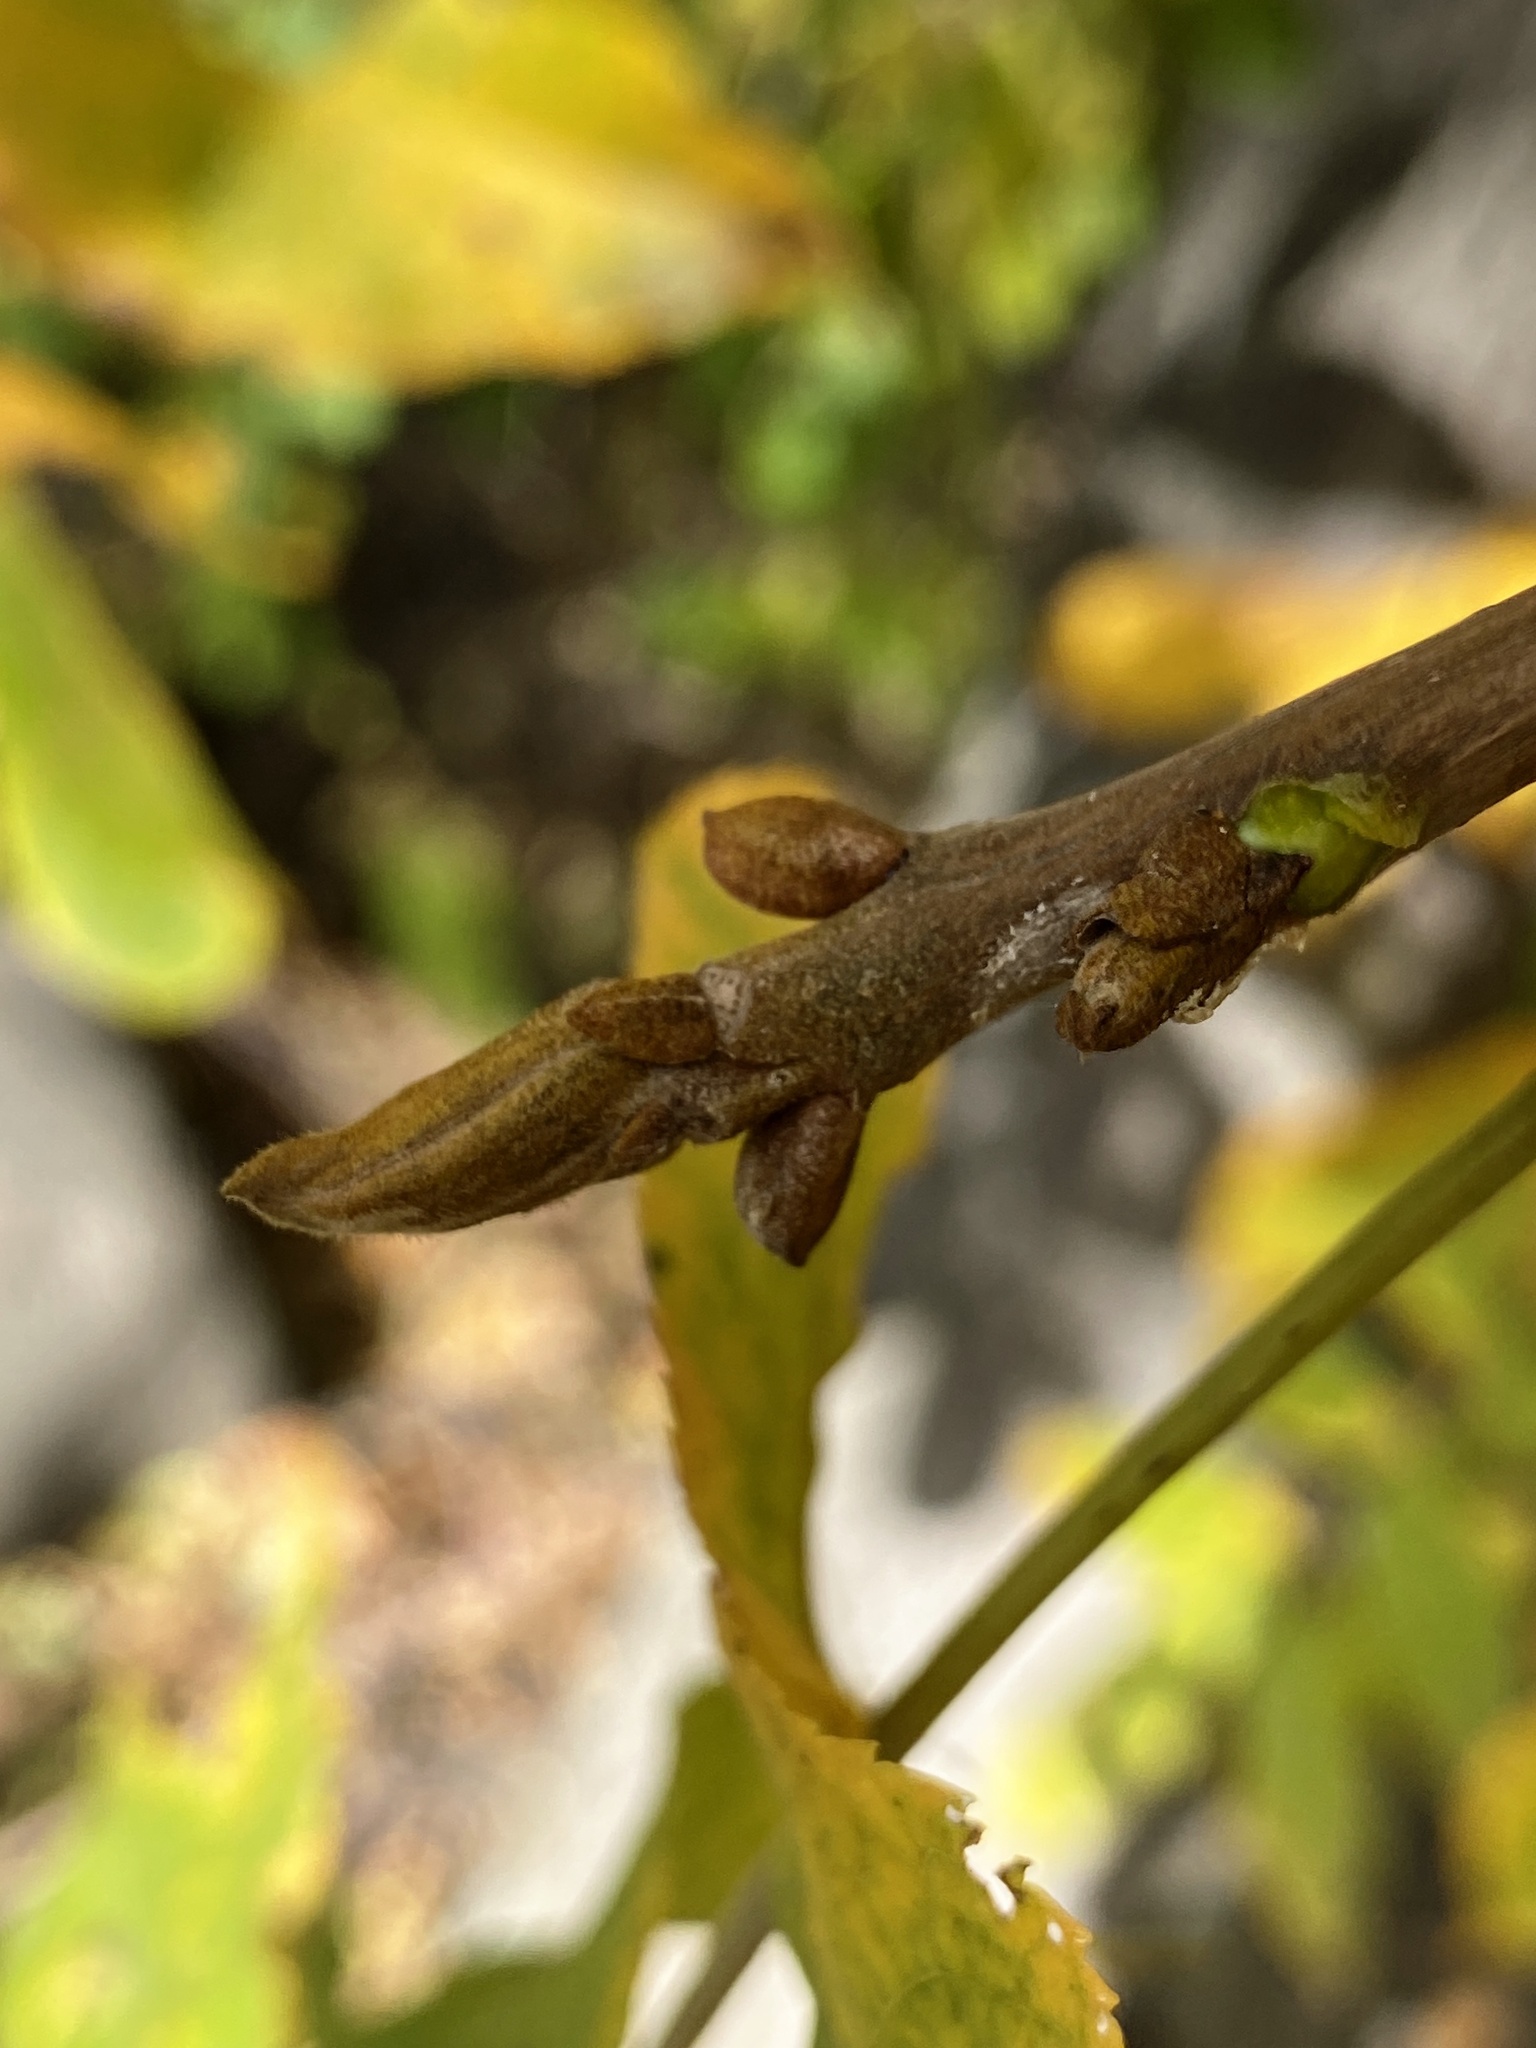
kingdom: Plantae
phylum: Tracheophyta
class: Magnoliopsida
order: Fagales
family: Juglandaceae
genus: Carya
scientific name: Carya cordiformis
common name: Bitternut hickory
